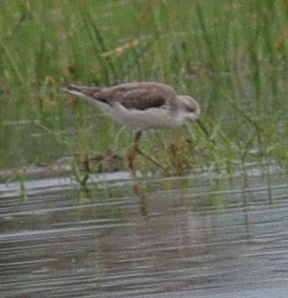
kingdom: Animalia
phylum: Chordata
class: Aves
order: Charadriiformes
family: Scolopacidae
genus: Tringa
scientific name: Tringa stagnatilis
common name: Marsh sandpiper
